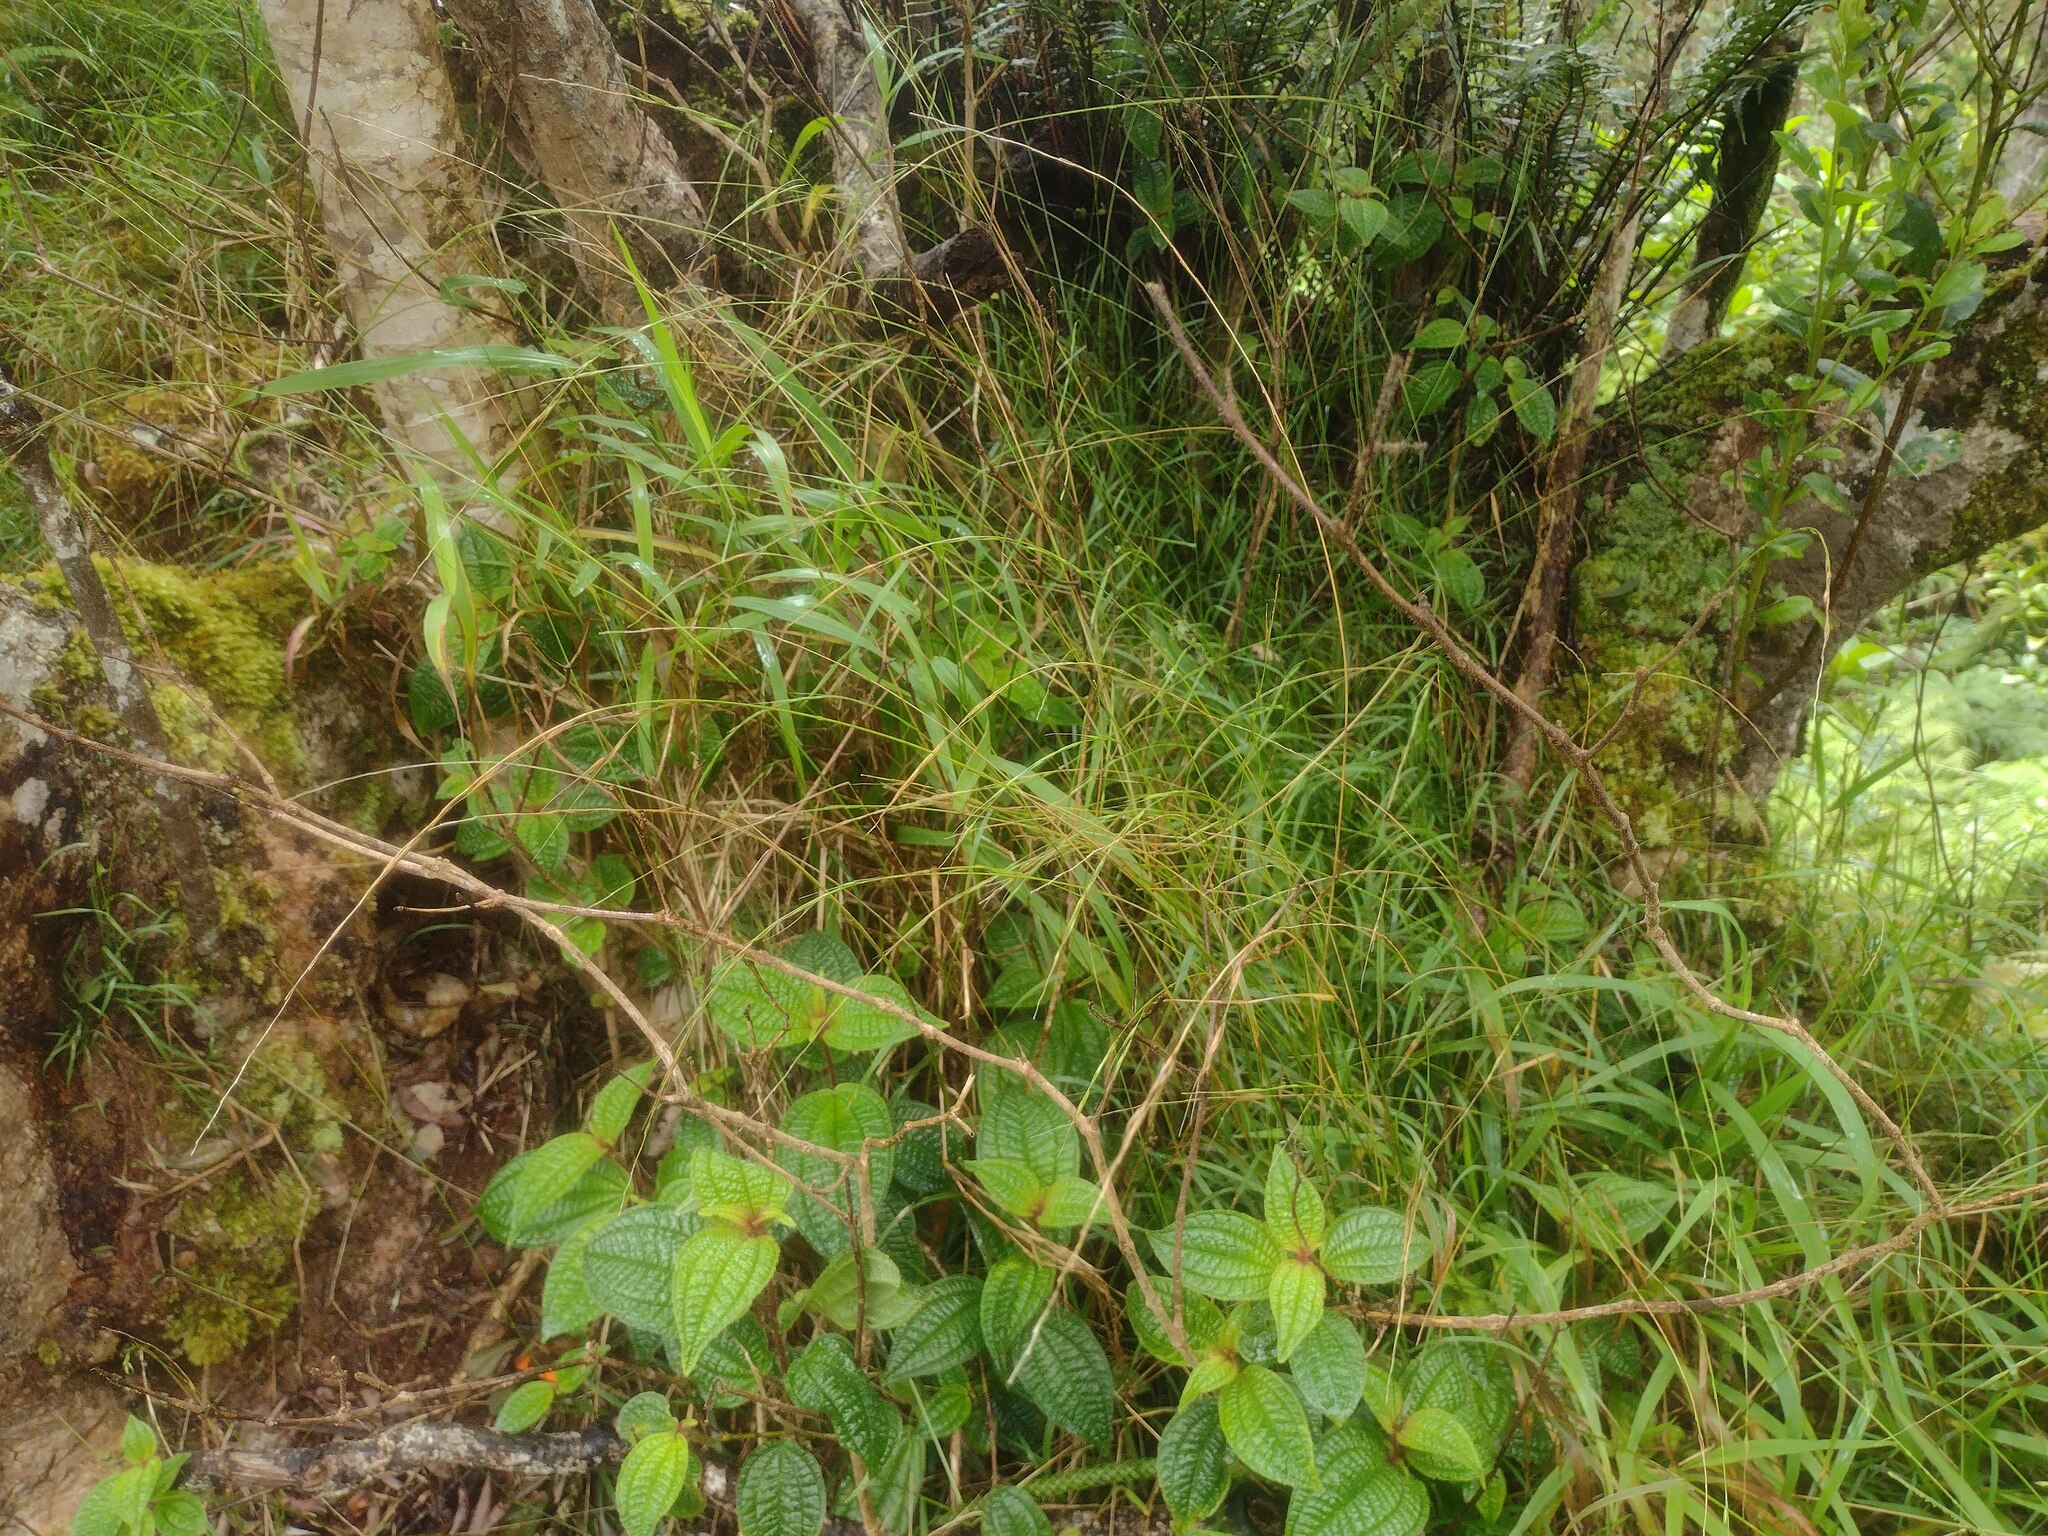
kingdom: Plantae
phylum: Tracheophyta
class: Liliopsida
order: Poales
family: Poaceae
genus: Microlaena
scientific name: Microlaena stipoides
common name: Meadow ricegrass
